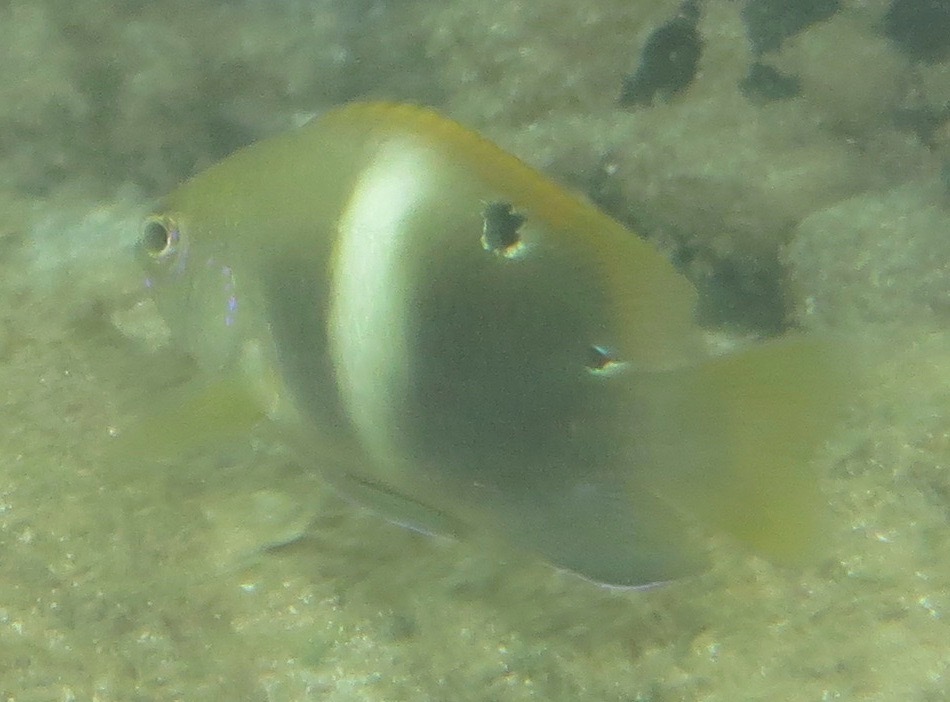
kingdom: Animalia
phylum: Chordata
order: Perciformes
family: Pomacentridae
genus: Chrysiptera
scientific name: Chrysiptera biocellata
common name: Twinspot damselfish
